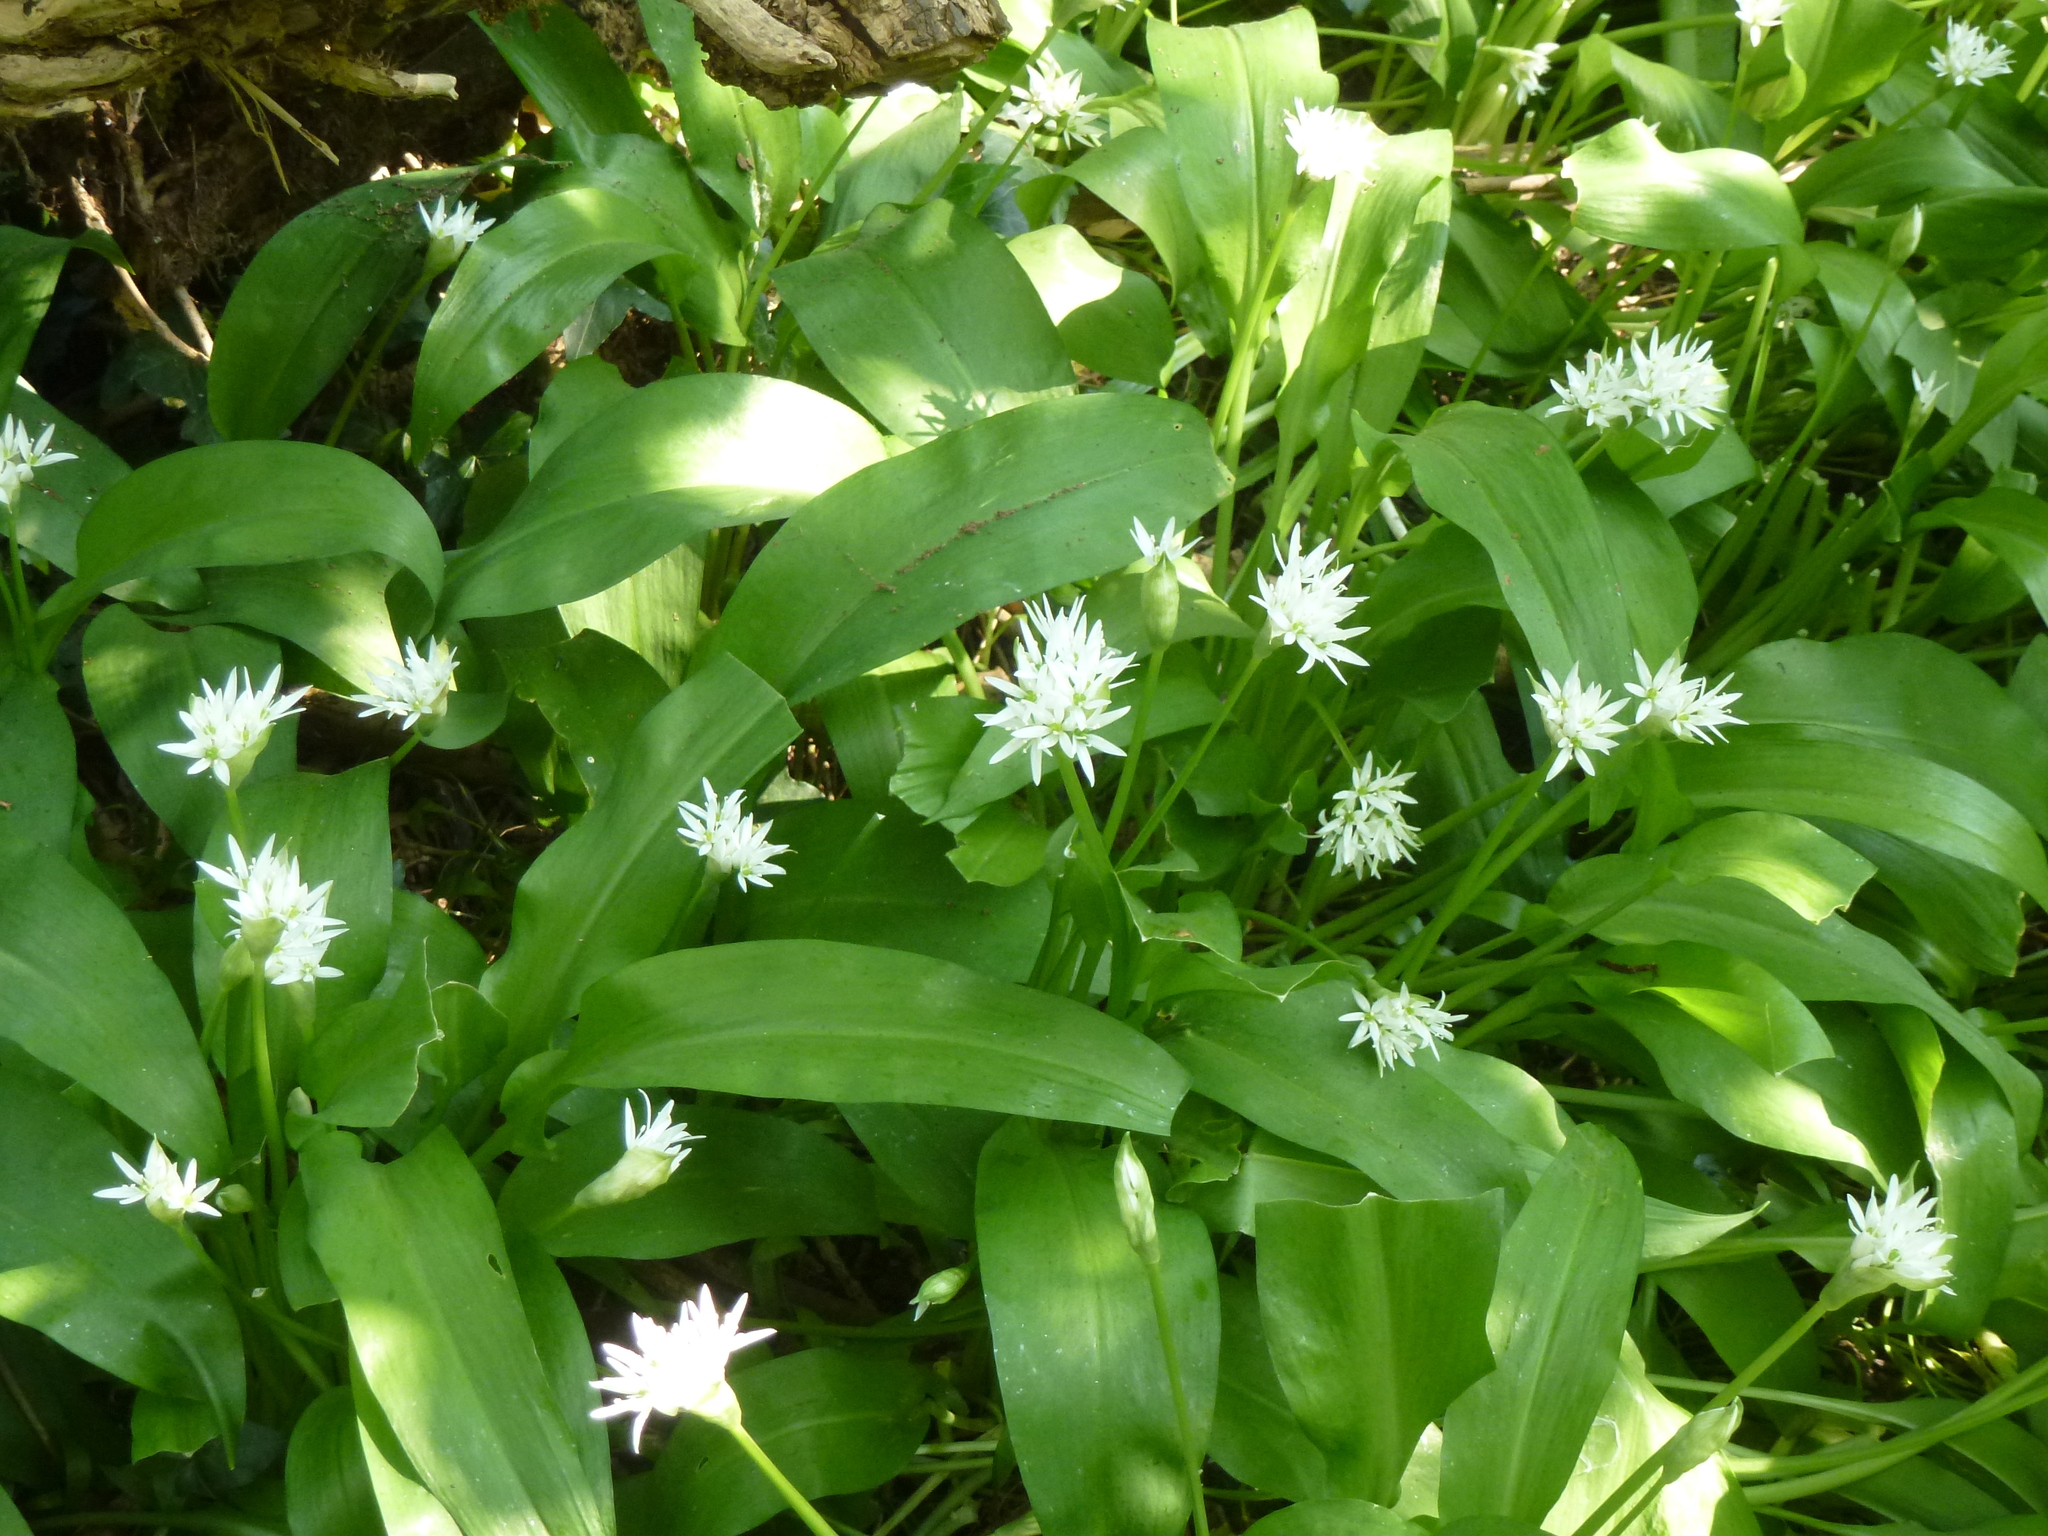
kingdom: Plantae
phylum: Tracheophyta
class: Liliopsida
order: Asparagales
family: Amaryllidaceae
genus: Allium
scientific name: Allium ursinum
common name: Ramsons
